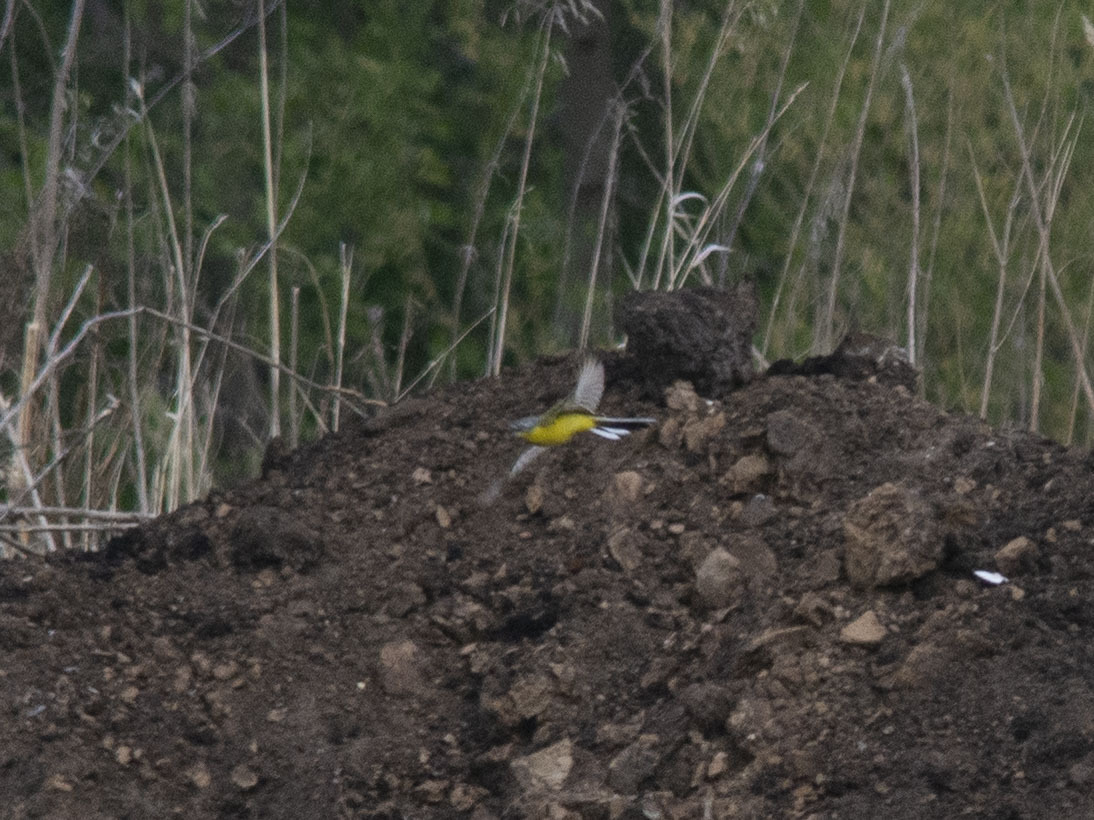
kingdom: Animalia
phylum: Chordata
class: Aves
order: Passeriformes
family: Motacillidae
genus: Motacilla
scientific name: Motacilla flava
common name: Western yellow wagtail
